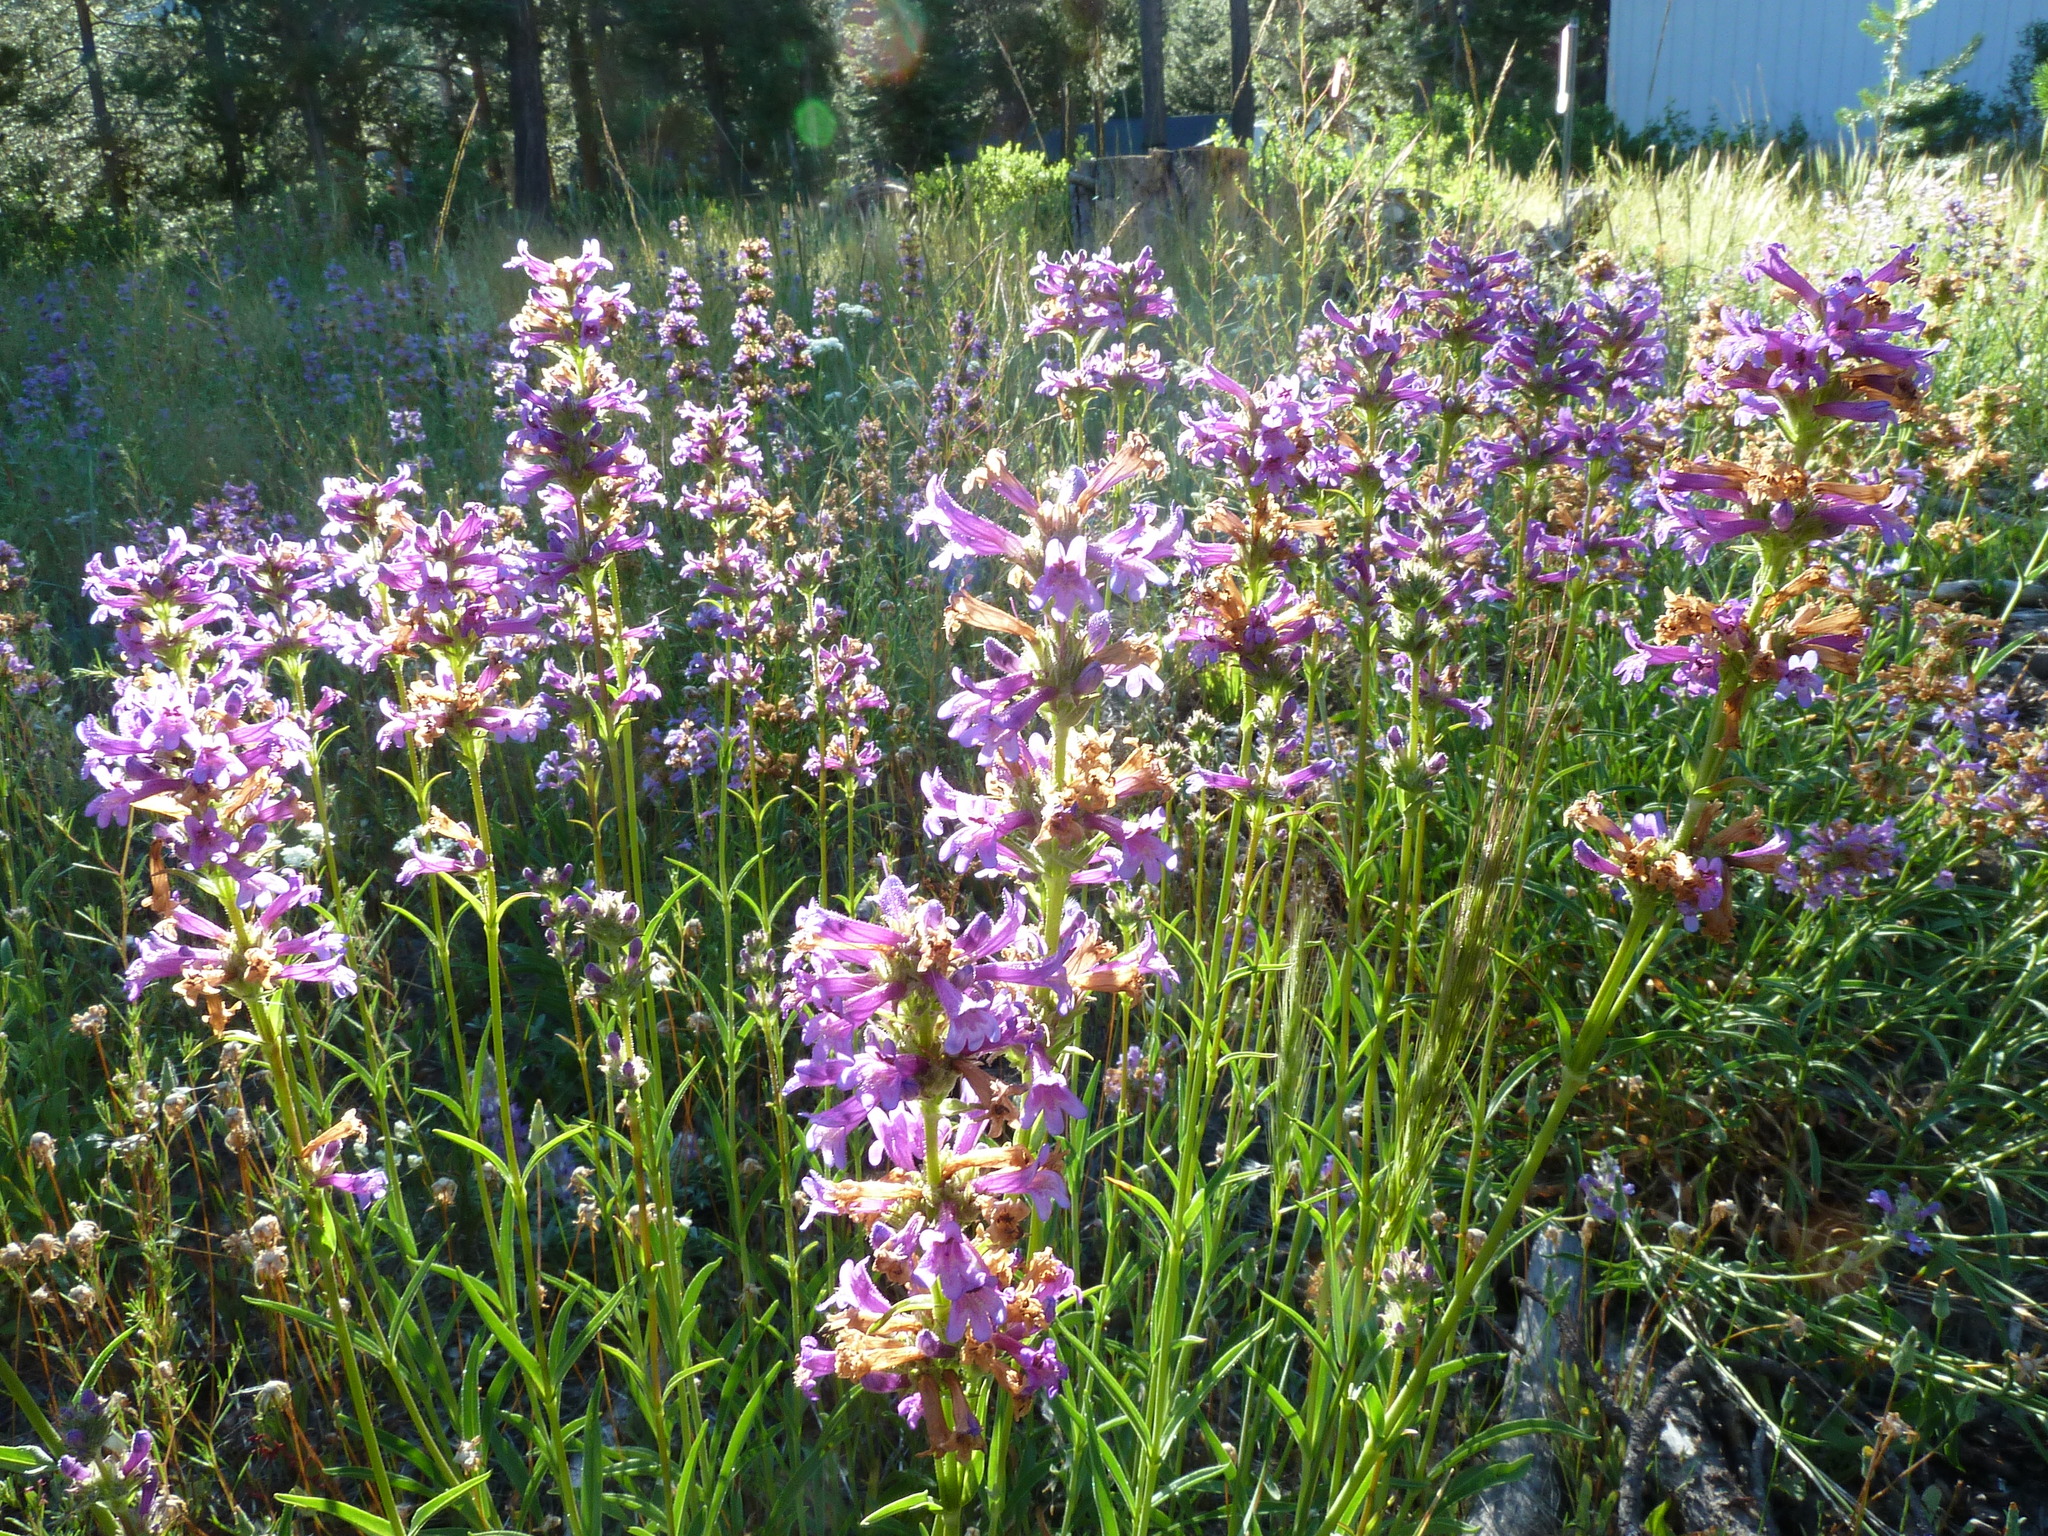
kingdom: Plantae
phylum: Tracheophyta
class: Magnoliopsida
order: Lamiales
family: Plantaginaceae
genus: Penstemon
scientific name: Penstemon rydbergii
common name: Rydberg's beardtongue
